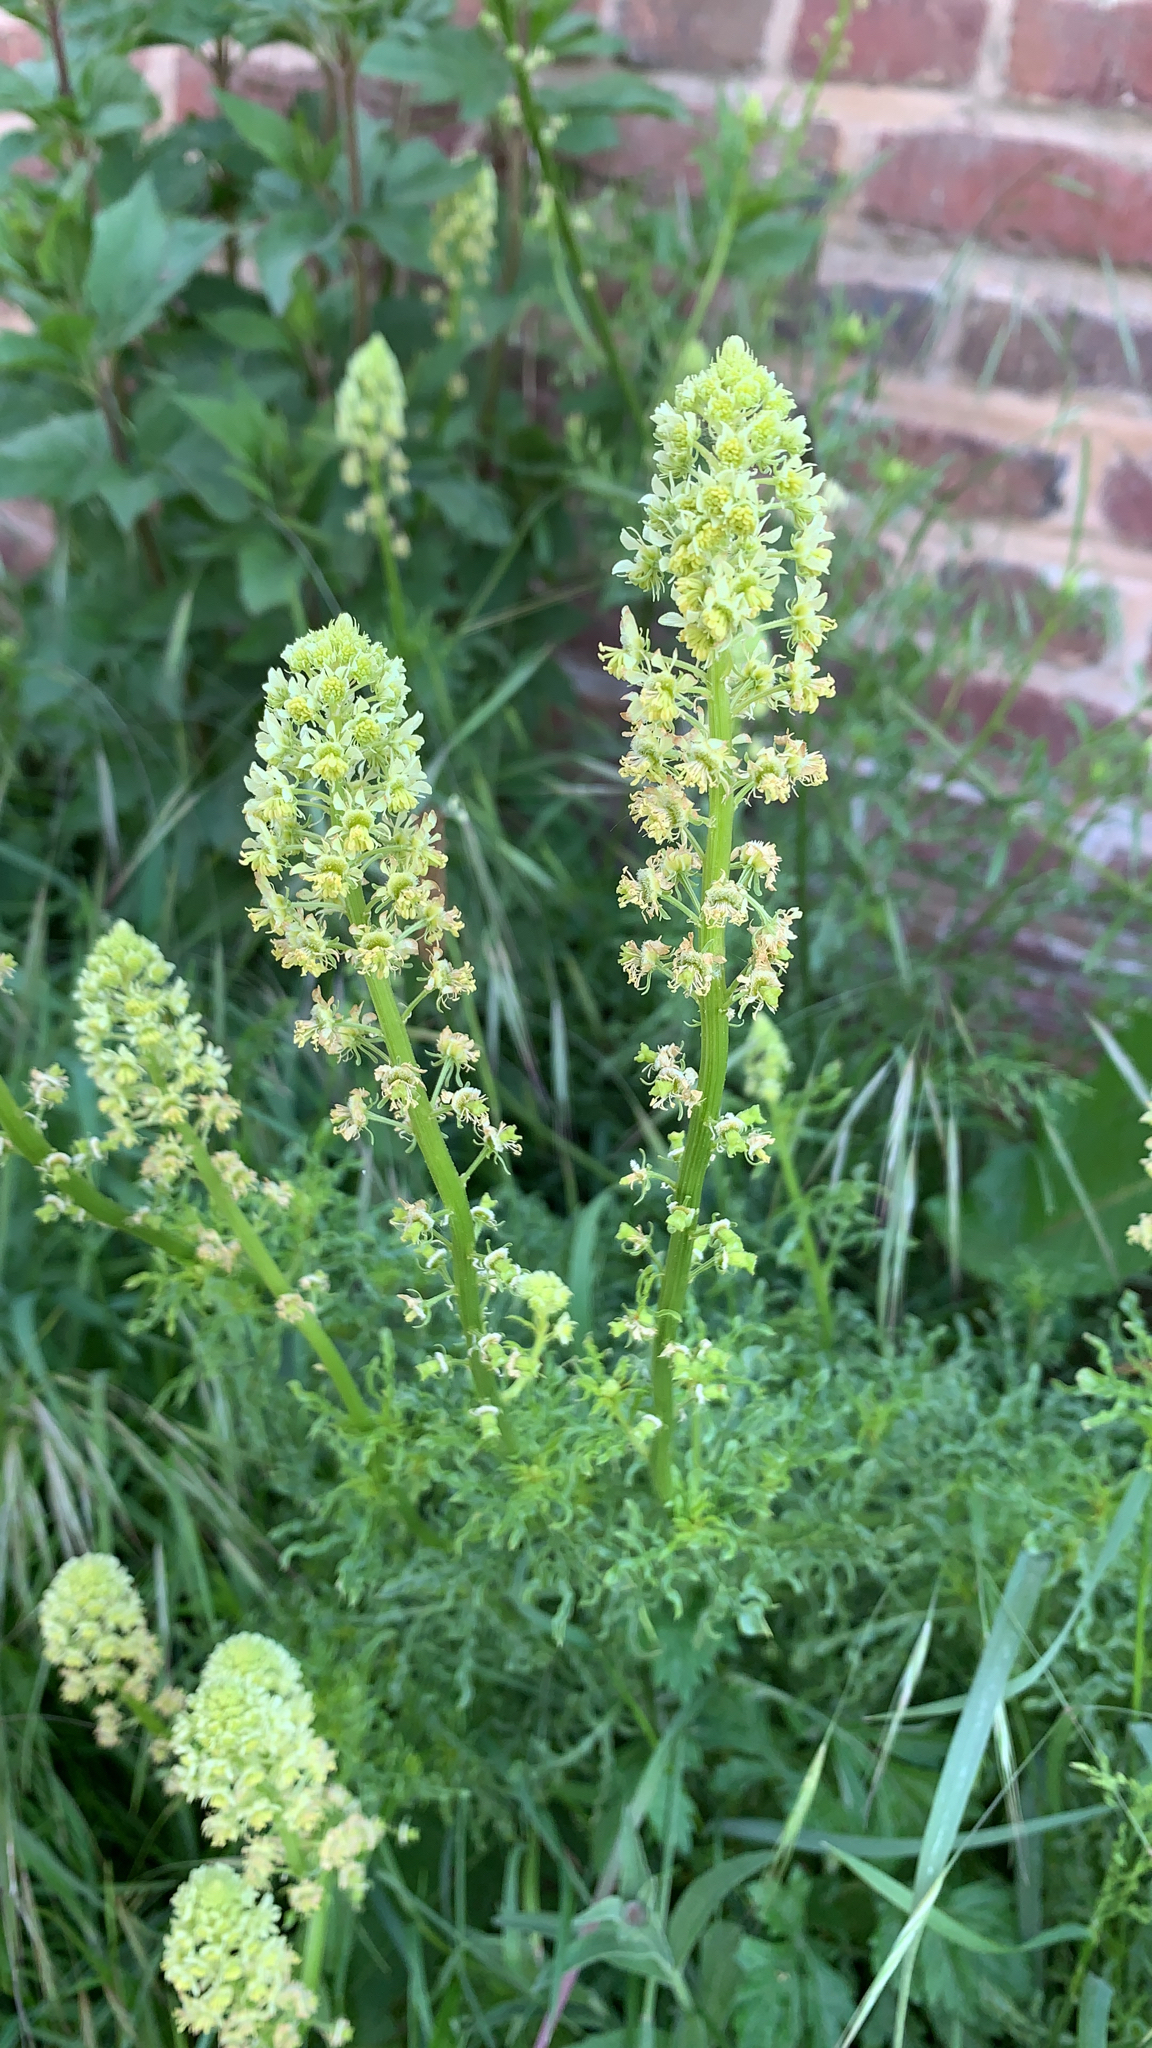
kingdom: Plantae
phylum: Tracheophyta
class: Magnoliopsida
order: Brassicales
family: Resedaceae
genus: Reseda
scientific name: Reseda lutea
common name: Wild mignonette
